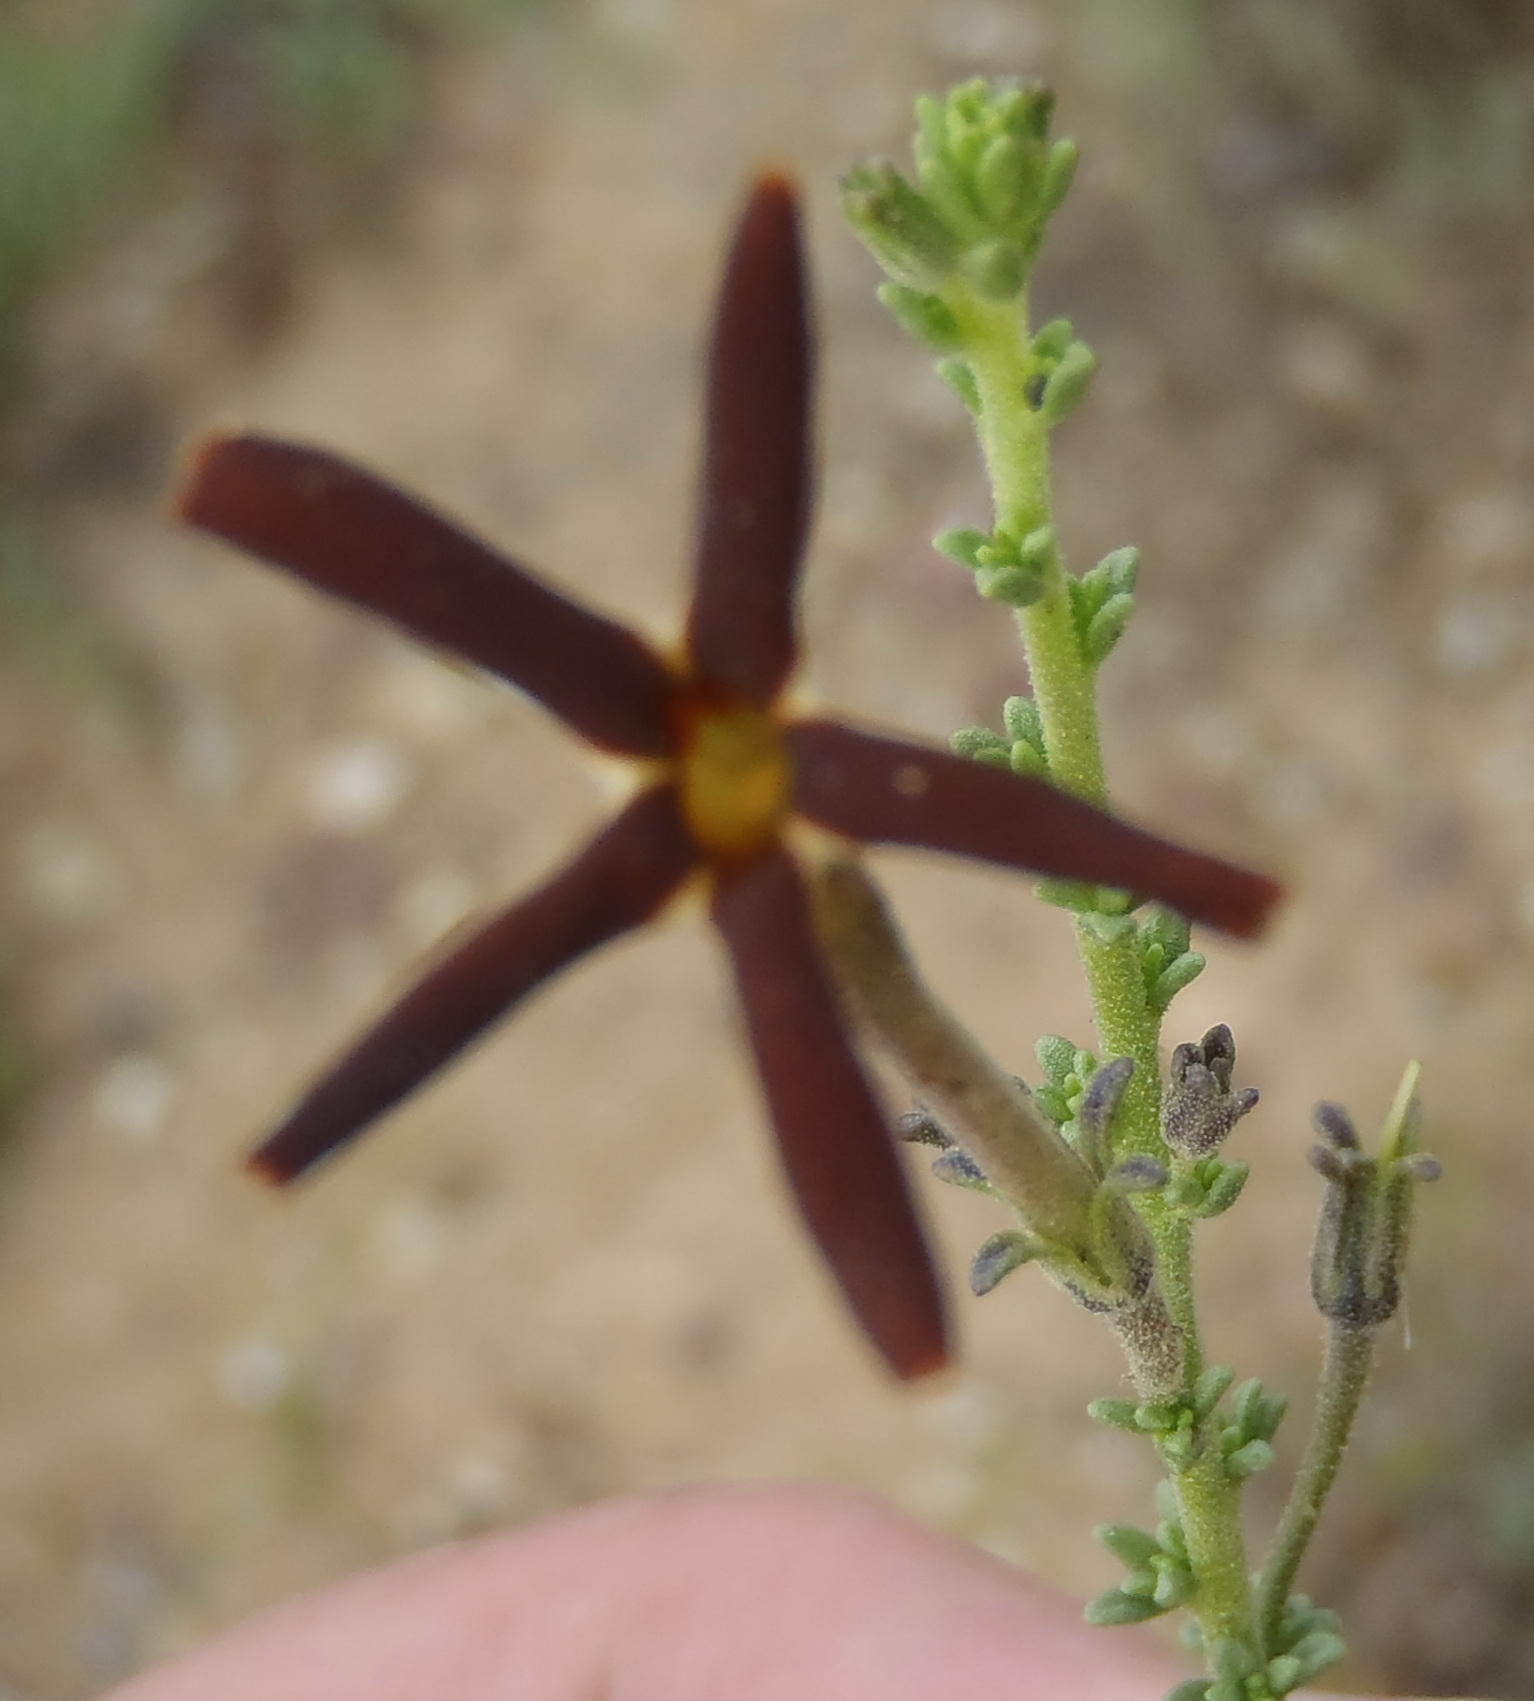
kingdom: Plantae
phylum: Tracheophyta
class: Magnoliopsida
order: Lamiales
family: Scrophulariaceae
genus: Jamesbrittenia
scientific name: Jamesbrittenia atropurpurea
